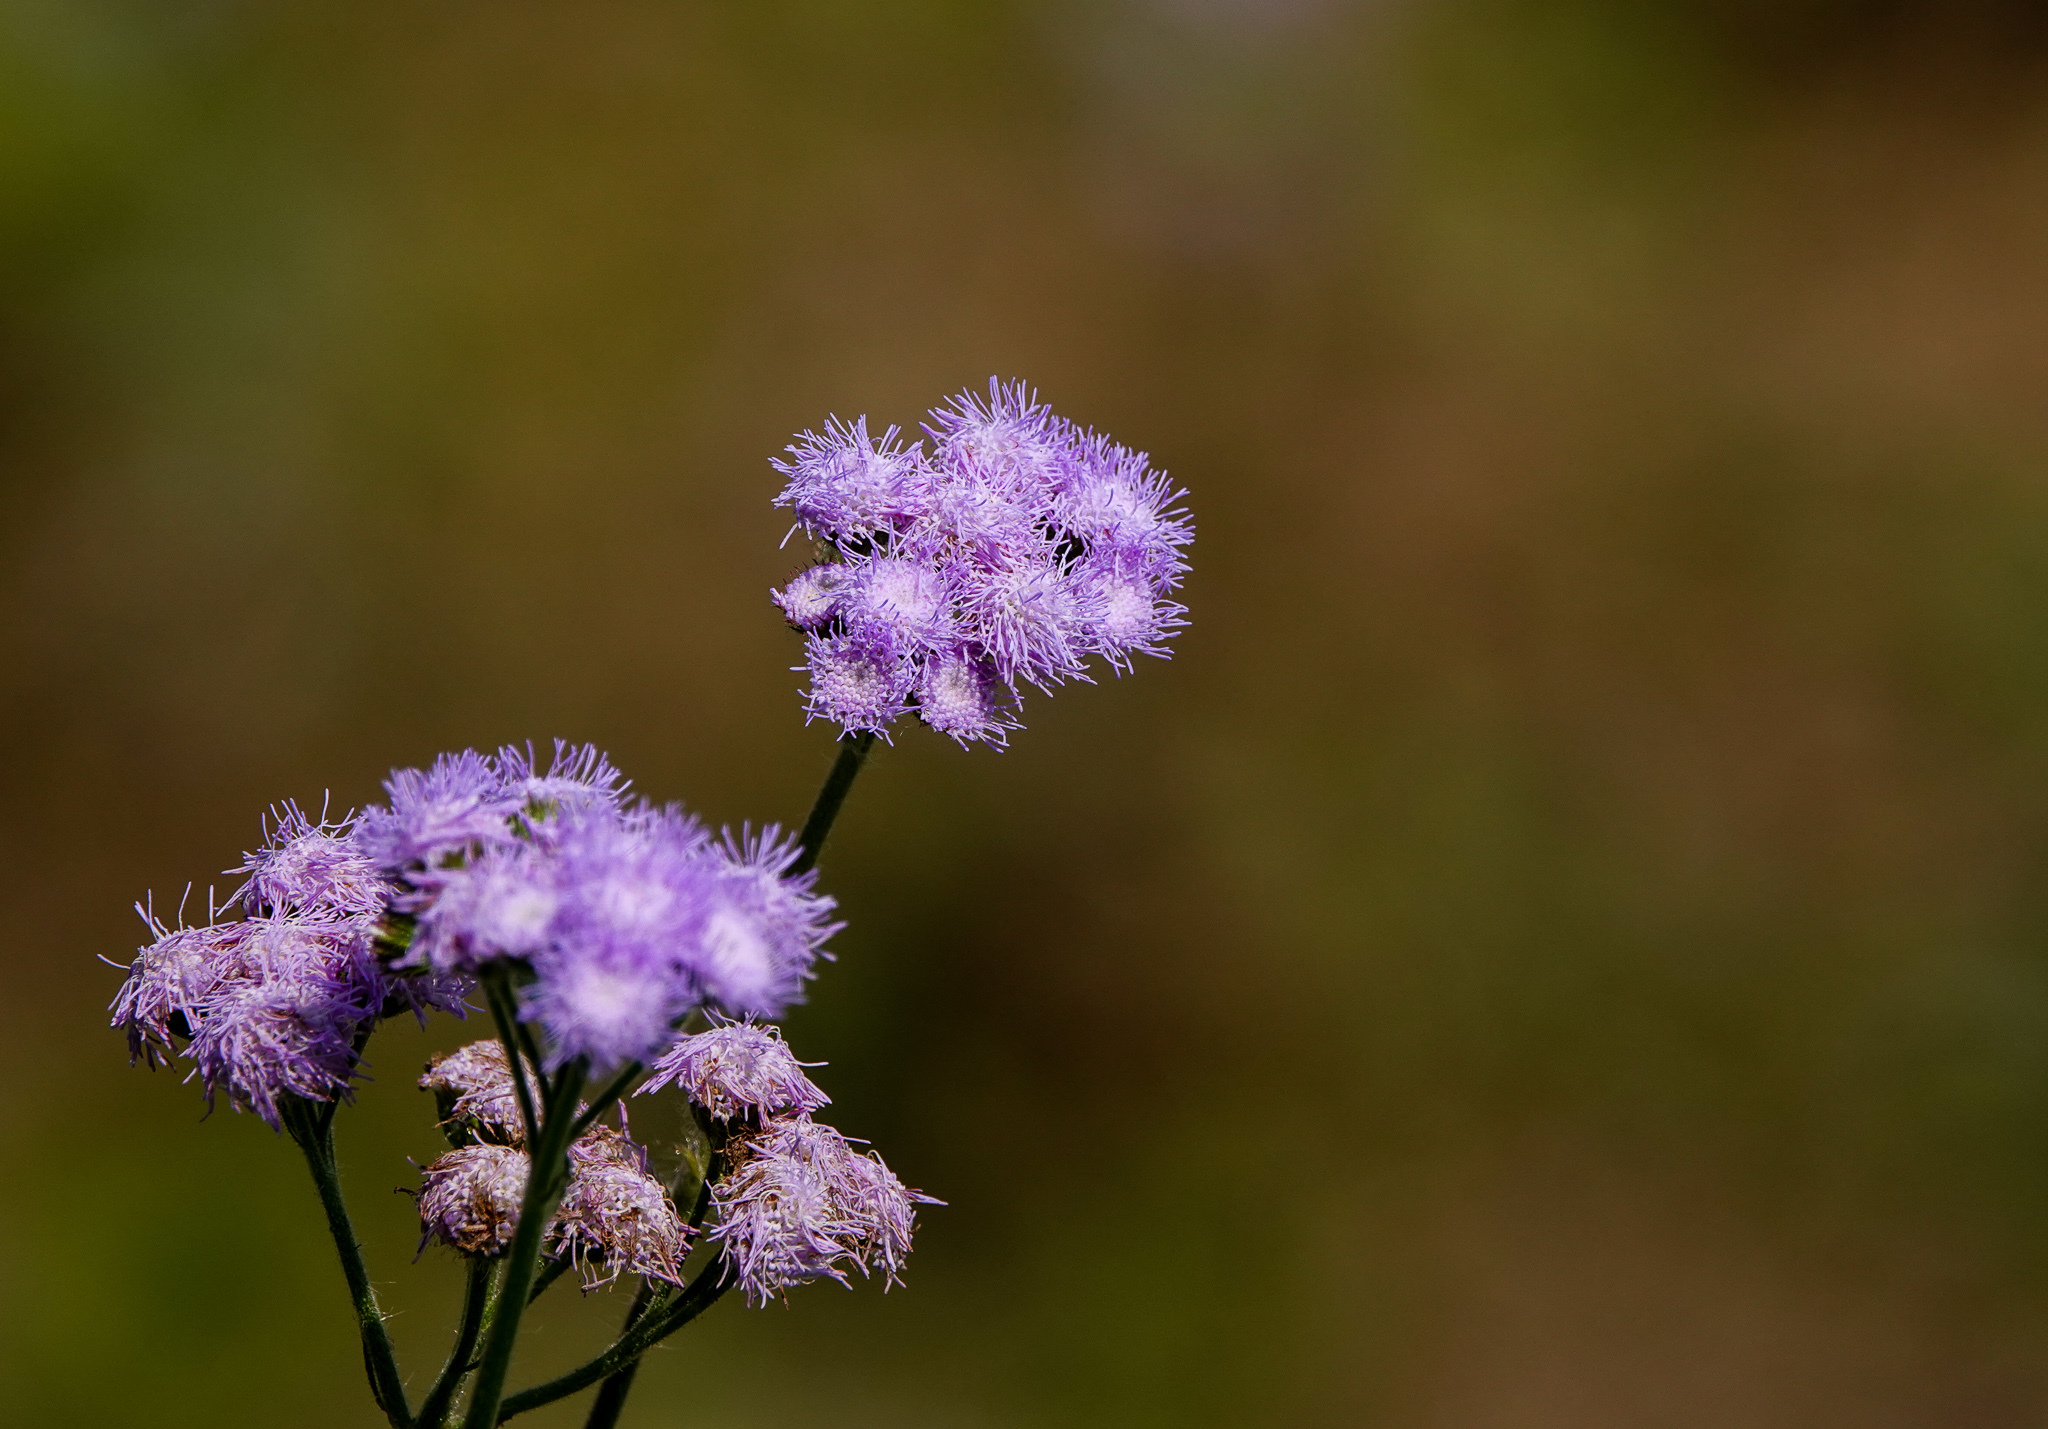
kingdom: Plantae
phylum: Tracheophyta
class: Magnoliopsida
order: Asterales
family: Asteraceae
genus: Ageratum
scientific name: Ageratum houstonianum
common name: Bluemink
